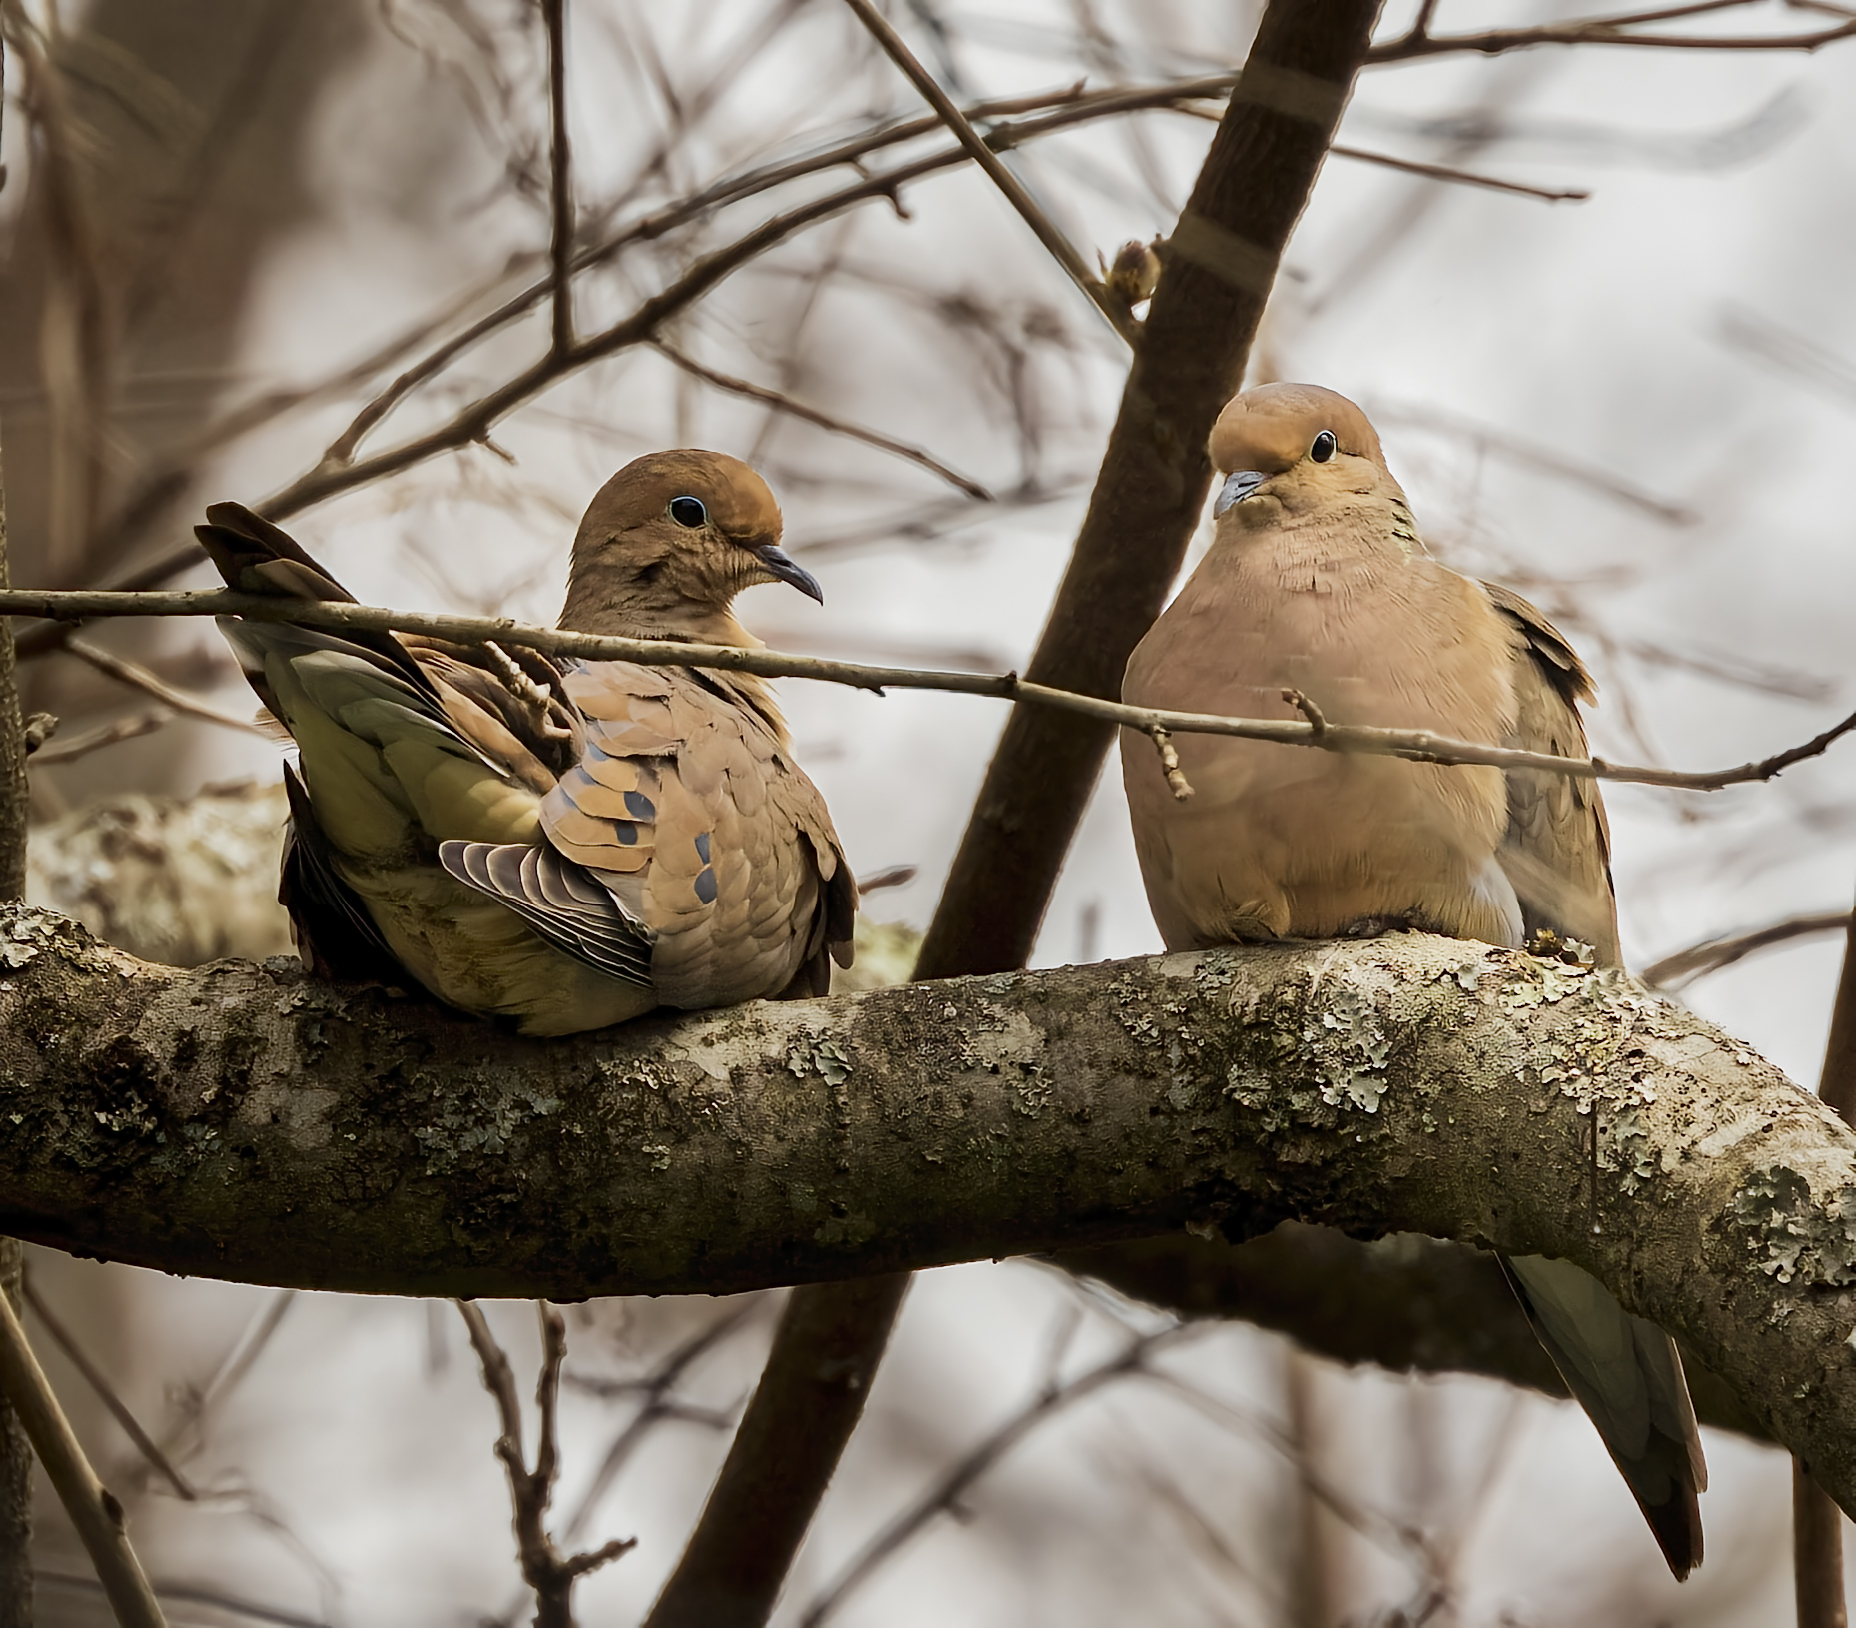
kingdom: Animalia
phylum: Chordata
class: Aves
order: Columbiformes
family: Columbidae
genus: Zenaida
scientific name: Zenaida macroura
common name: Mourning dove
